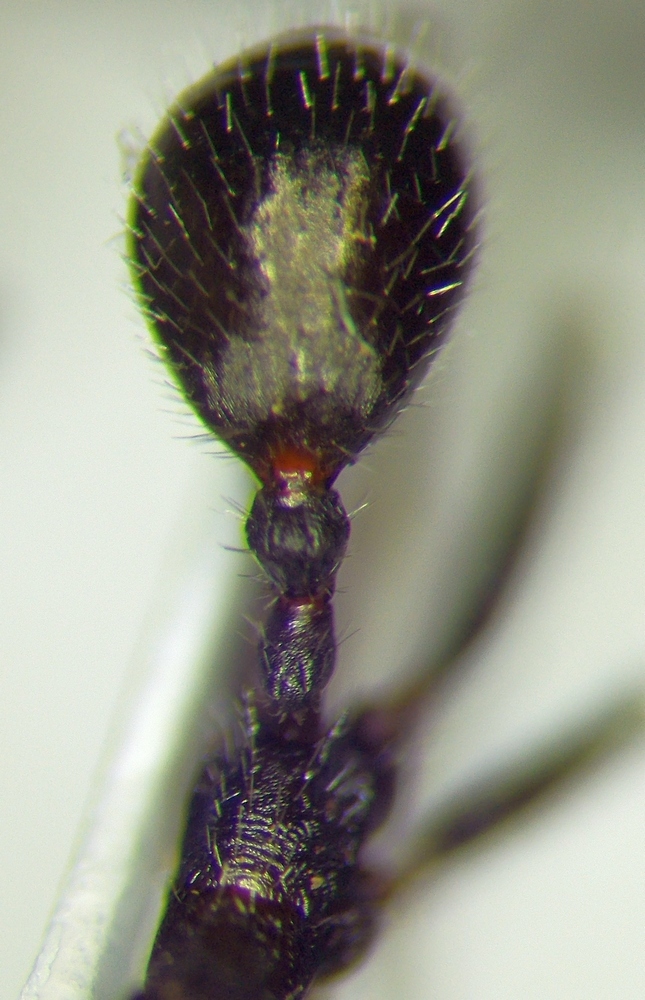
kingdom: Animalia
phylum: Arthropoda
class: Insecta
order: Hymenoptera
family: Formicidae
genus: Aphaenogaster
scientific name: Aphaenogaster simonellii
